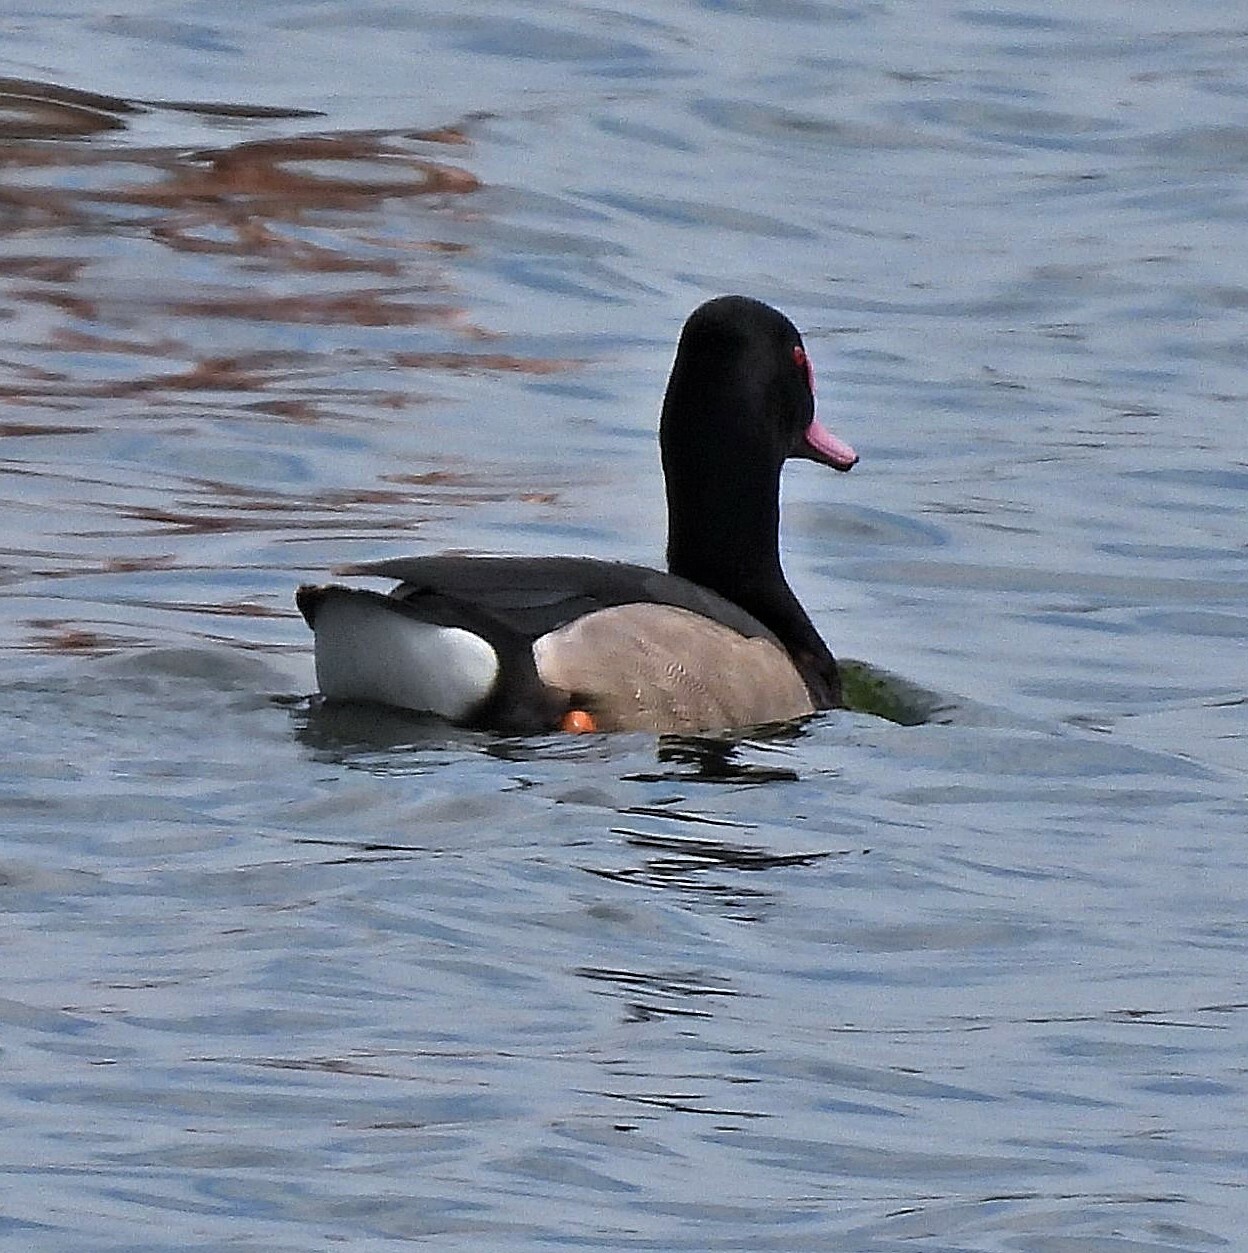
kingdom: Animalia
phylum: Chordata
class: Aves
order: Anseriformes
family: Anatidae
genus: Netta
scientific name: Netta peposaca
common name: Rosy-billed pochard
